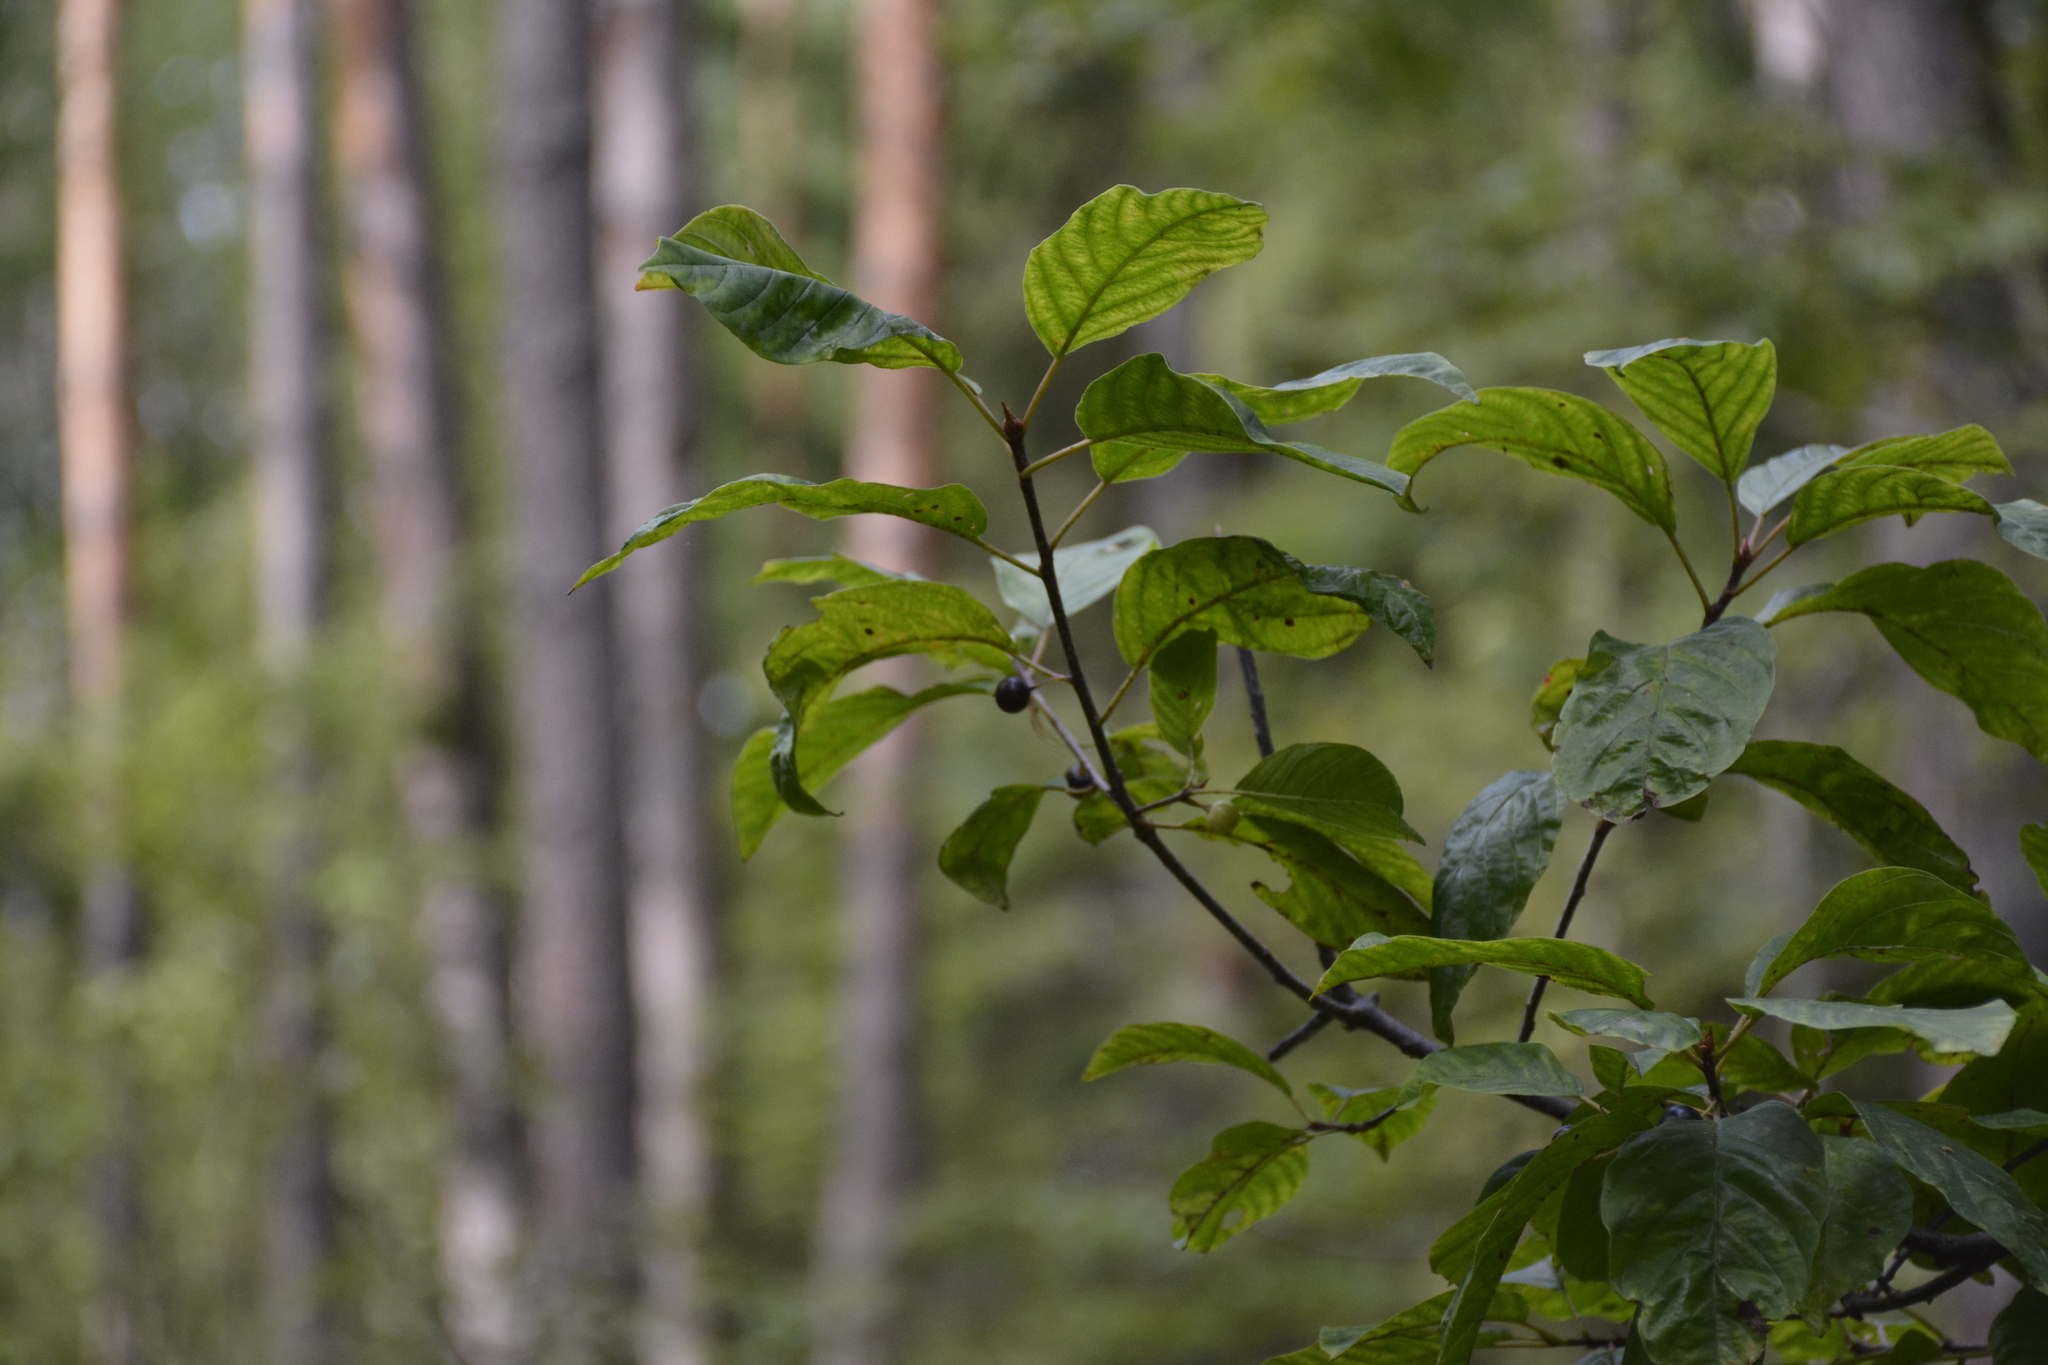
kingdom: Plantae
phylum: Tracheophyta
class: Magnoliopsida
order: Rosales
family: Rhamnaceae
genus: Frangula
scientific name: Frangula alnus
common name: Alder buckthorn
